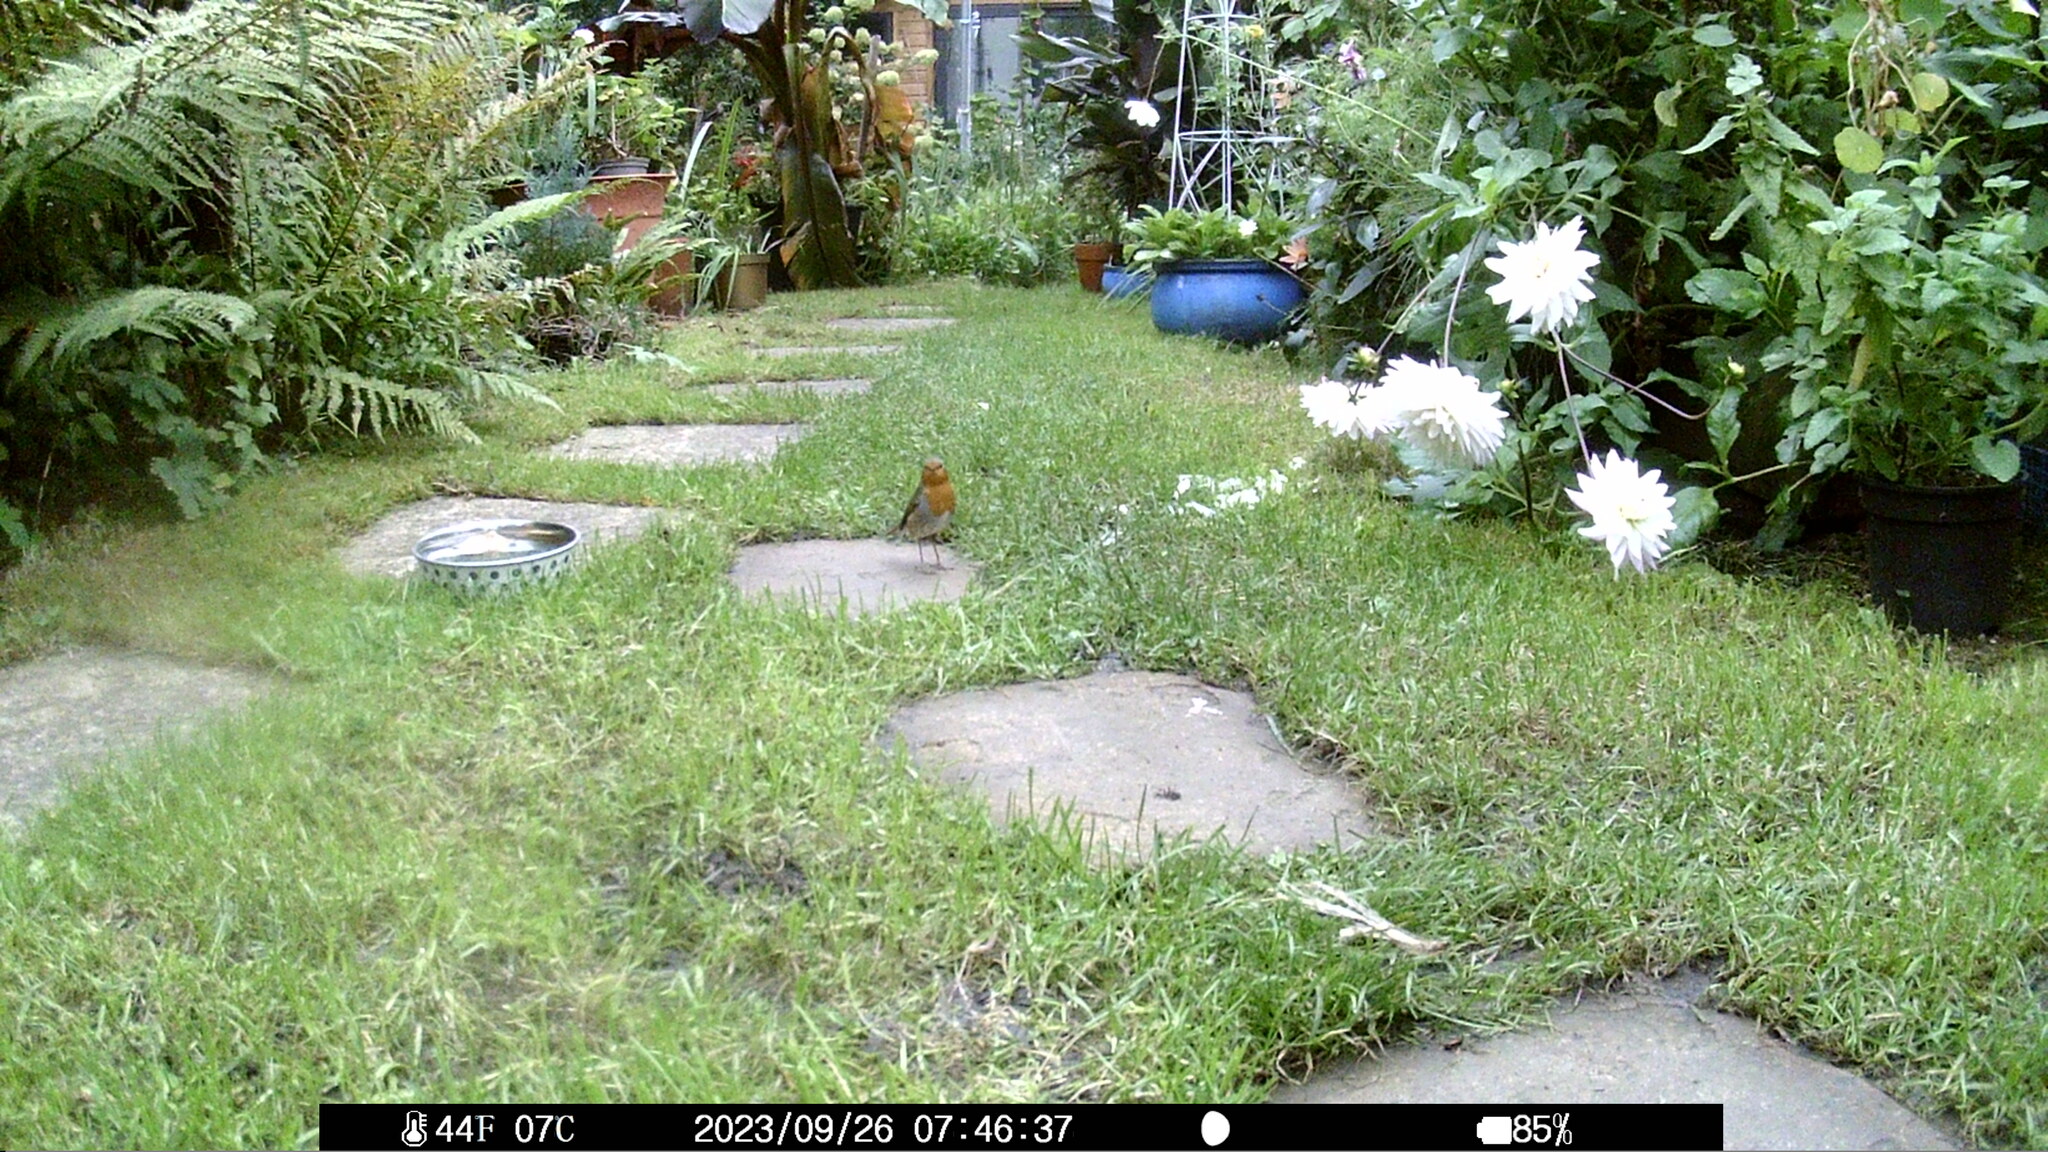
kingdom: Animalia
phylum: Chordata
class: Aves
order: Passeriformes
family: Muscicapidae
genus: Erithacus
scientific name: Erithacus rubecula
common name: European robin
